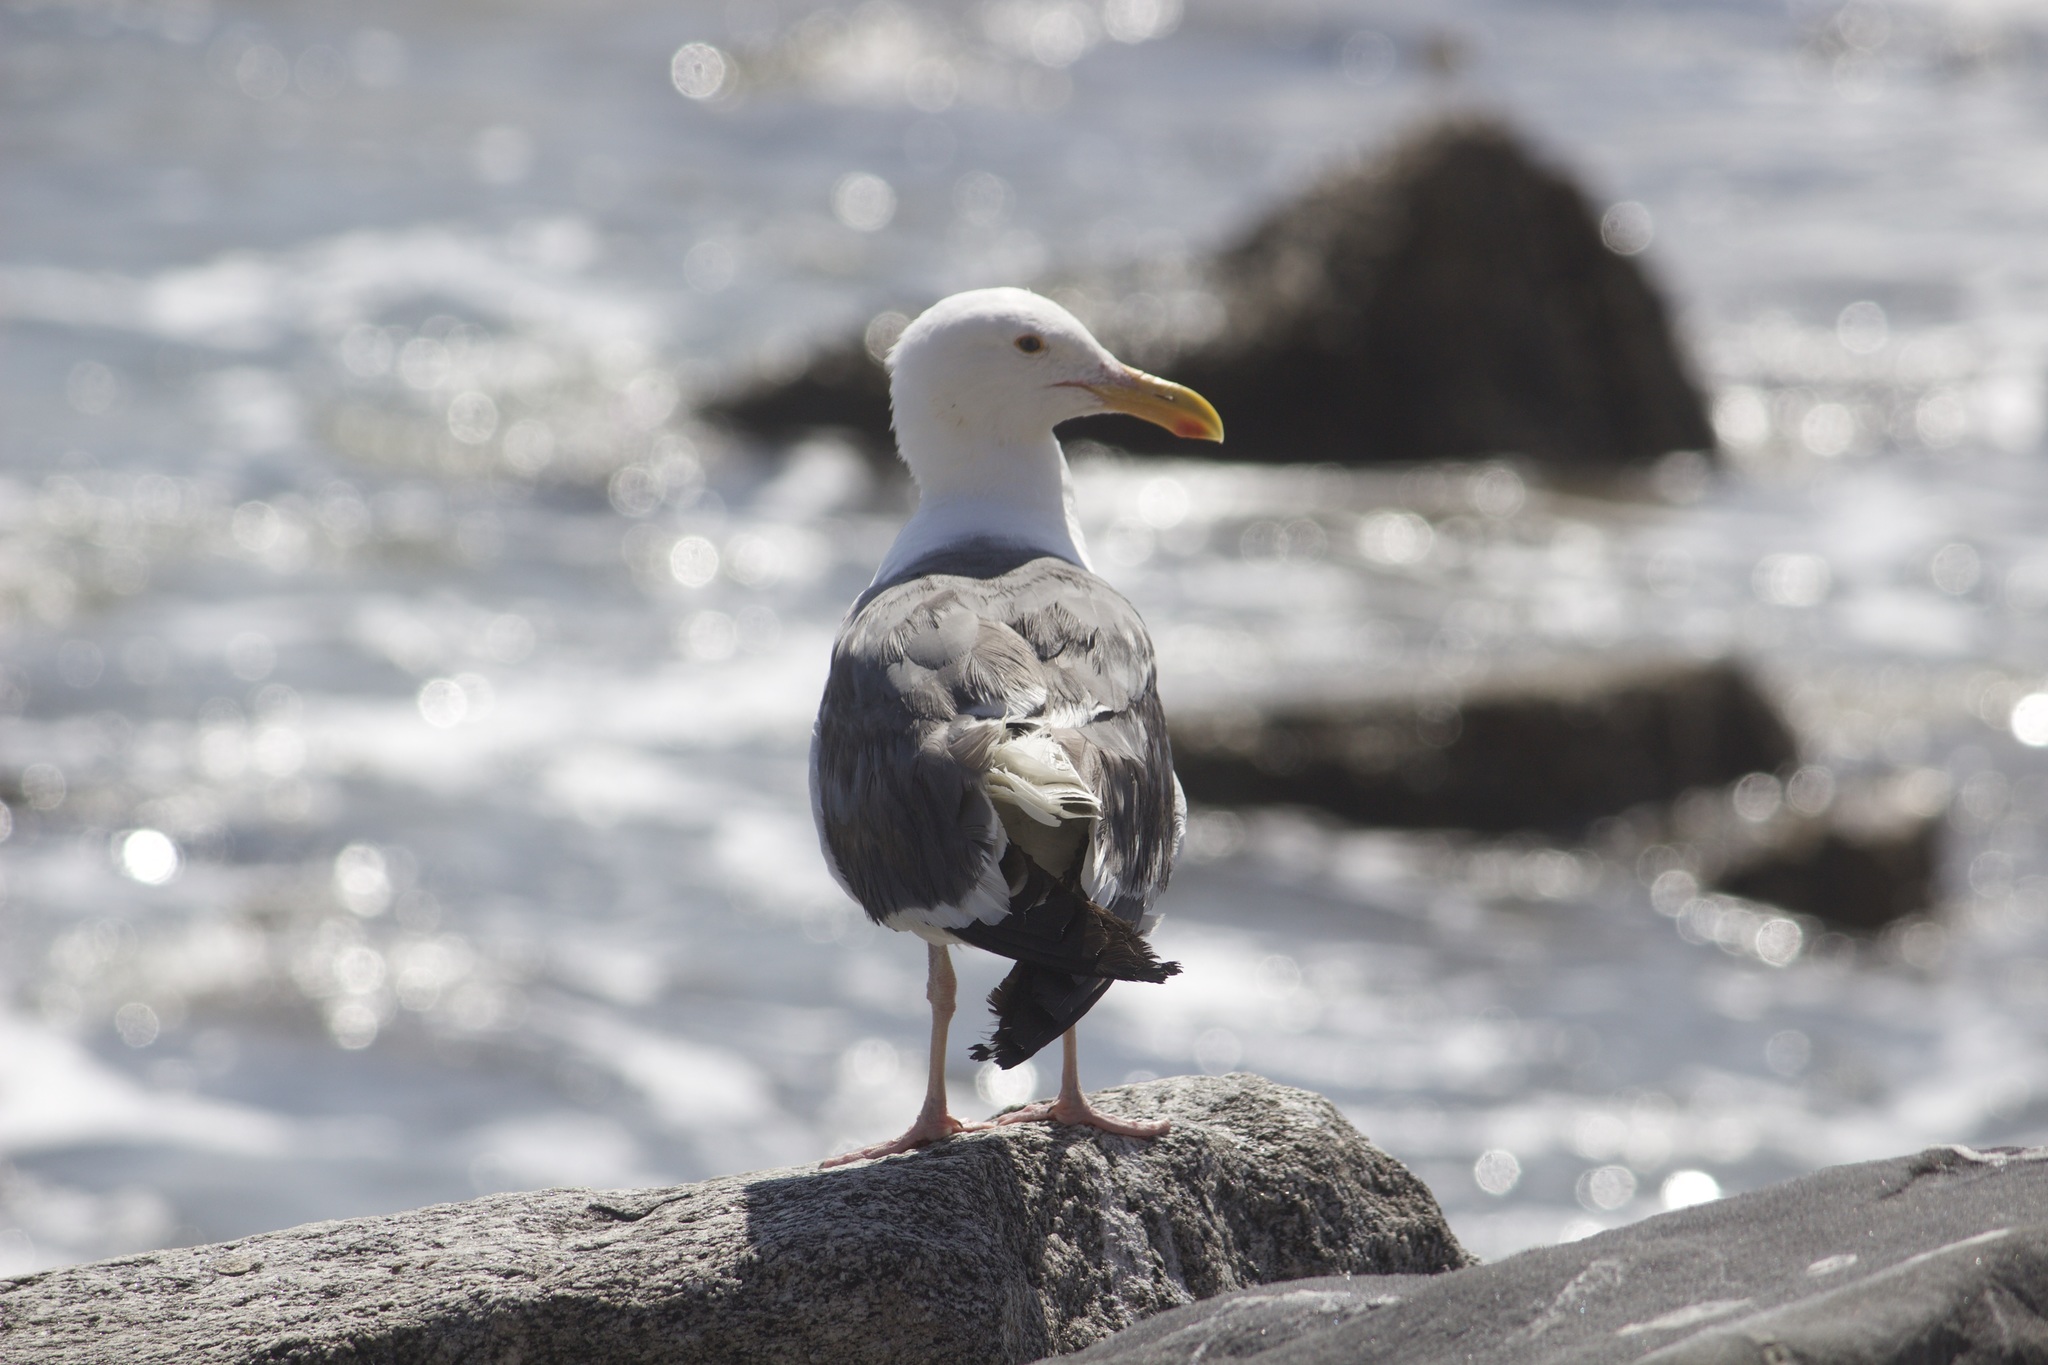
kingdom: Animalia
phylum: Chordata
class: Aves
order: Charadriiformes
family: Laridae
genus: Larus
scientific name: Larus occidentalis
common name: Western gull
